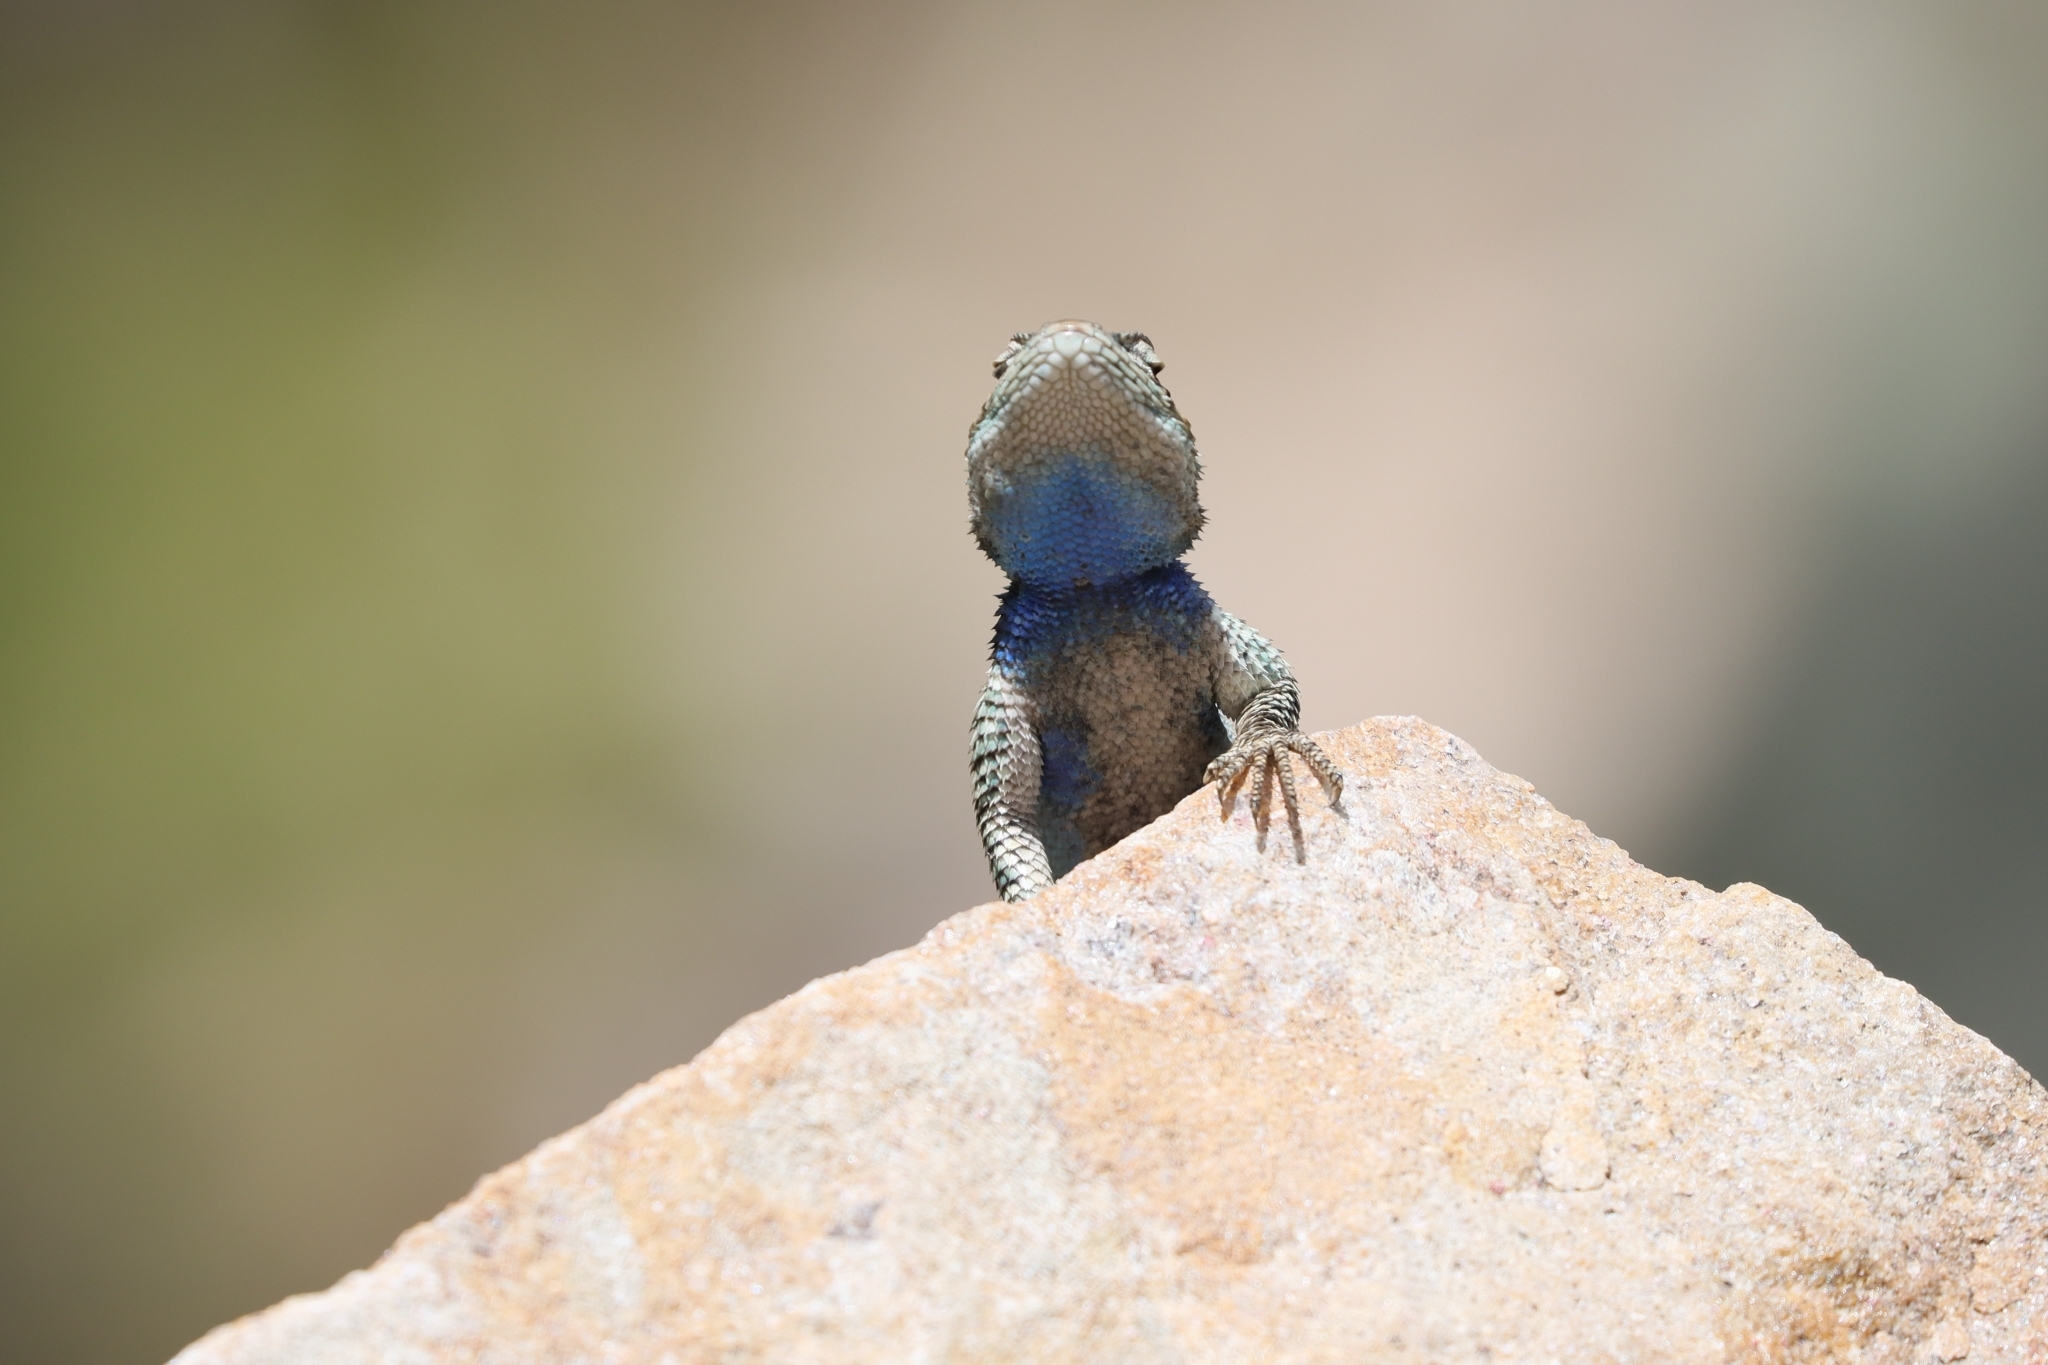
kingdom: Animalia
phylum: Chordata
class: Squamata
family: Phrynosomatidae
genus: Sceloporus
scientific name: Sceloporus jarrovii
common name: Yarrow's spiny lizard
